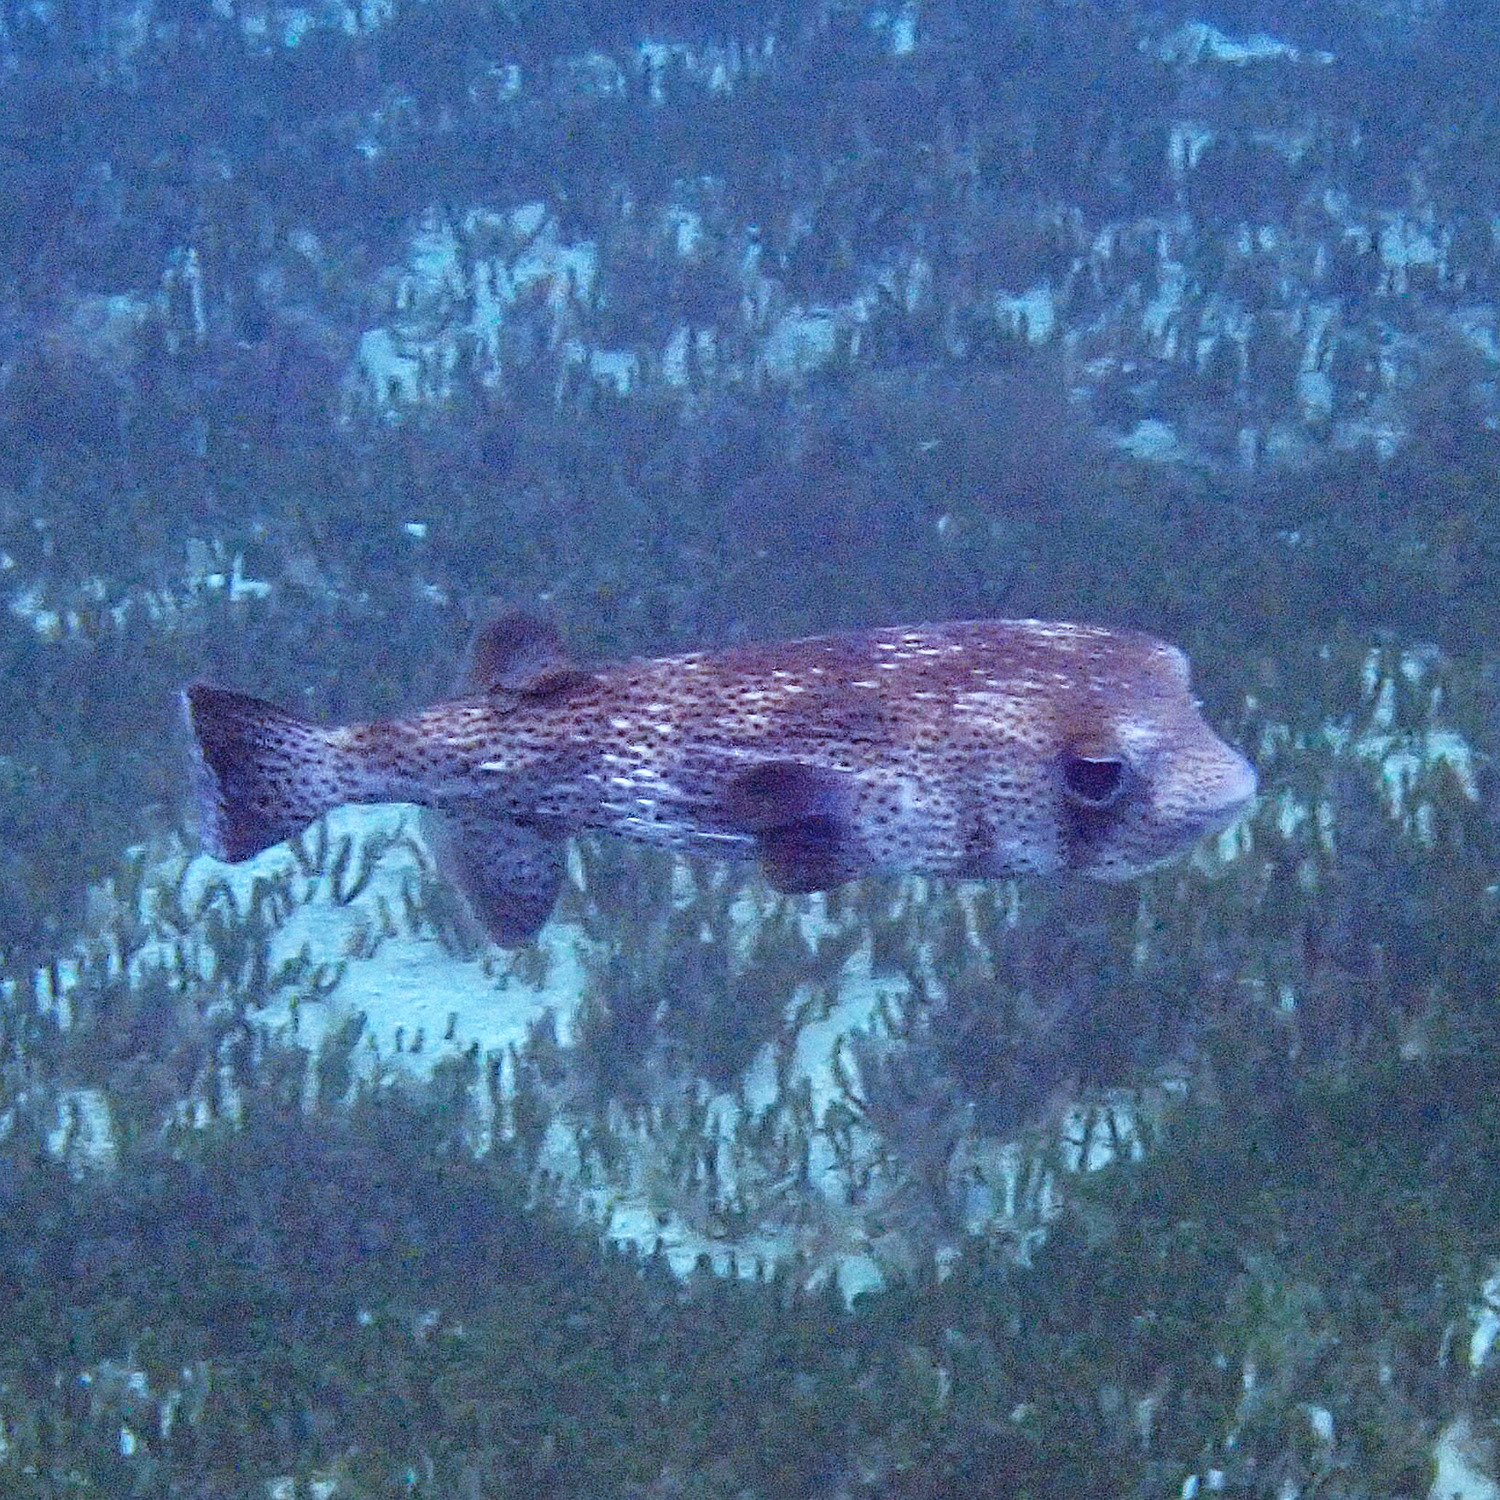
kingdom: Animalia
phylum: Chordata
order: Tetraodontiformes
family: Diodontidae
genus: Diodon
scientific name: Diodon hystrix
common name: Giant porcupinefish
